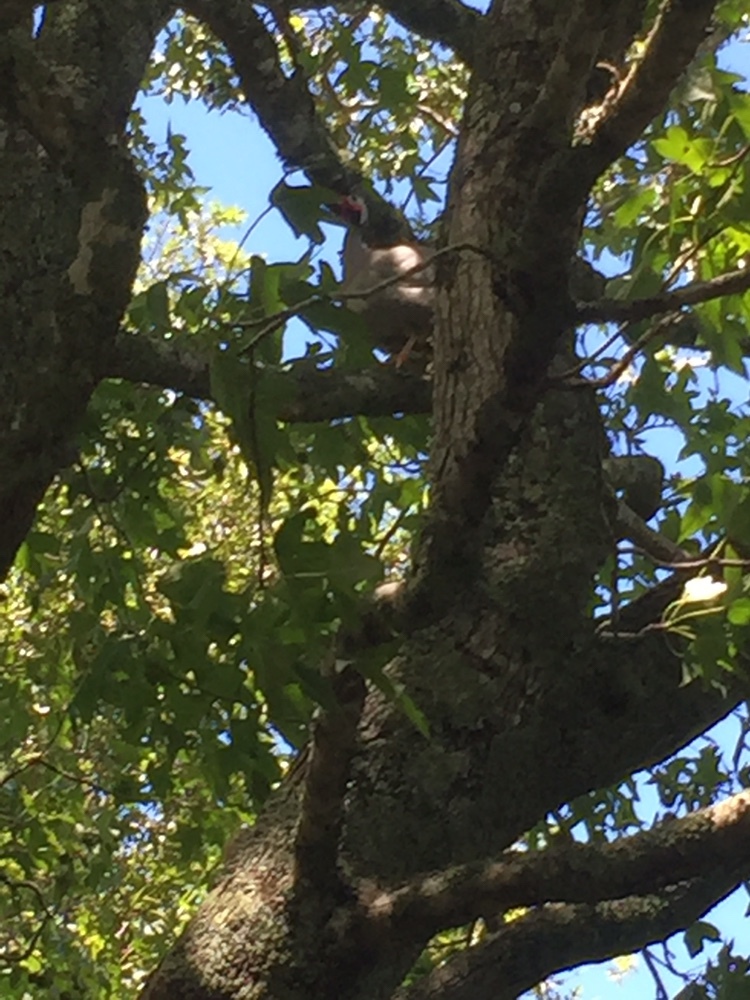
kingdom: Animalia
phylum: Chordata
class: Aves
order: Galliformes
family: Numididae
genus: Numida
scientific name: Numida meleagris
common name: Helmeted guineafowl
